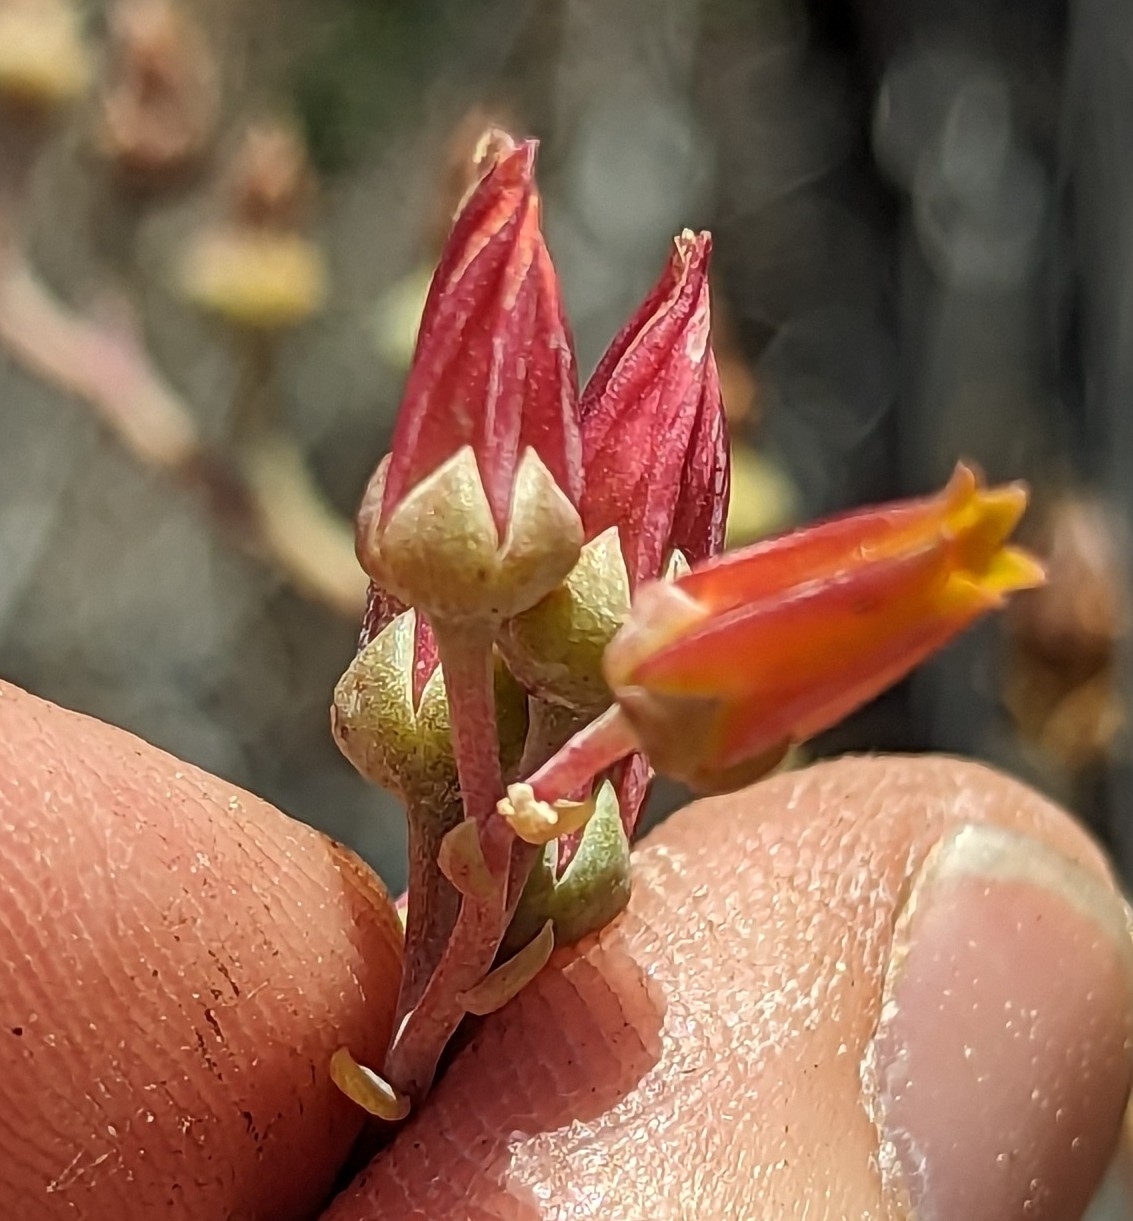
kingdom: Plantae
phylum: Tracheophyta
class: Magnoliopsida
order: Saxifragales
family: Crassulaceae
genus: Dudleya
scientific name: Dudleya lanceolata
